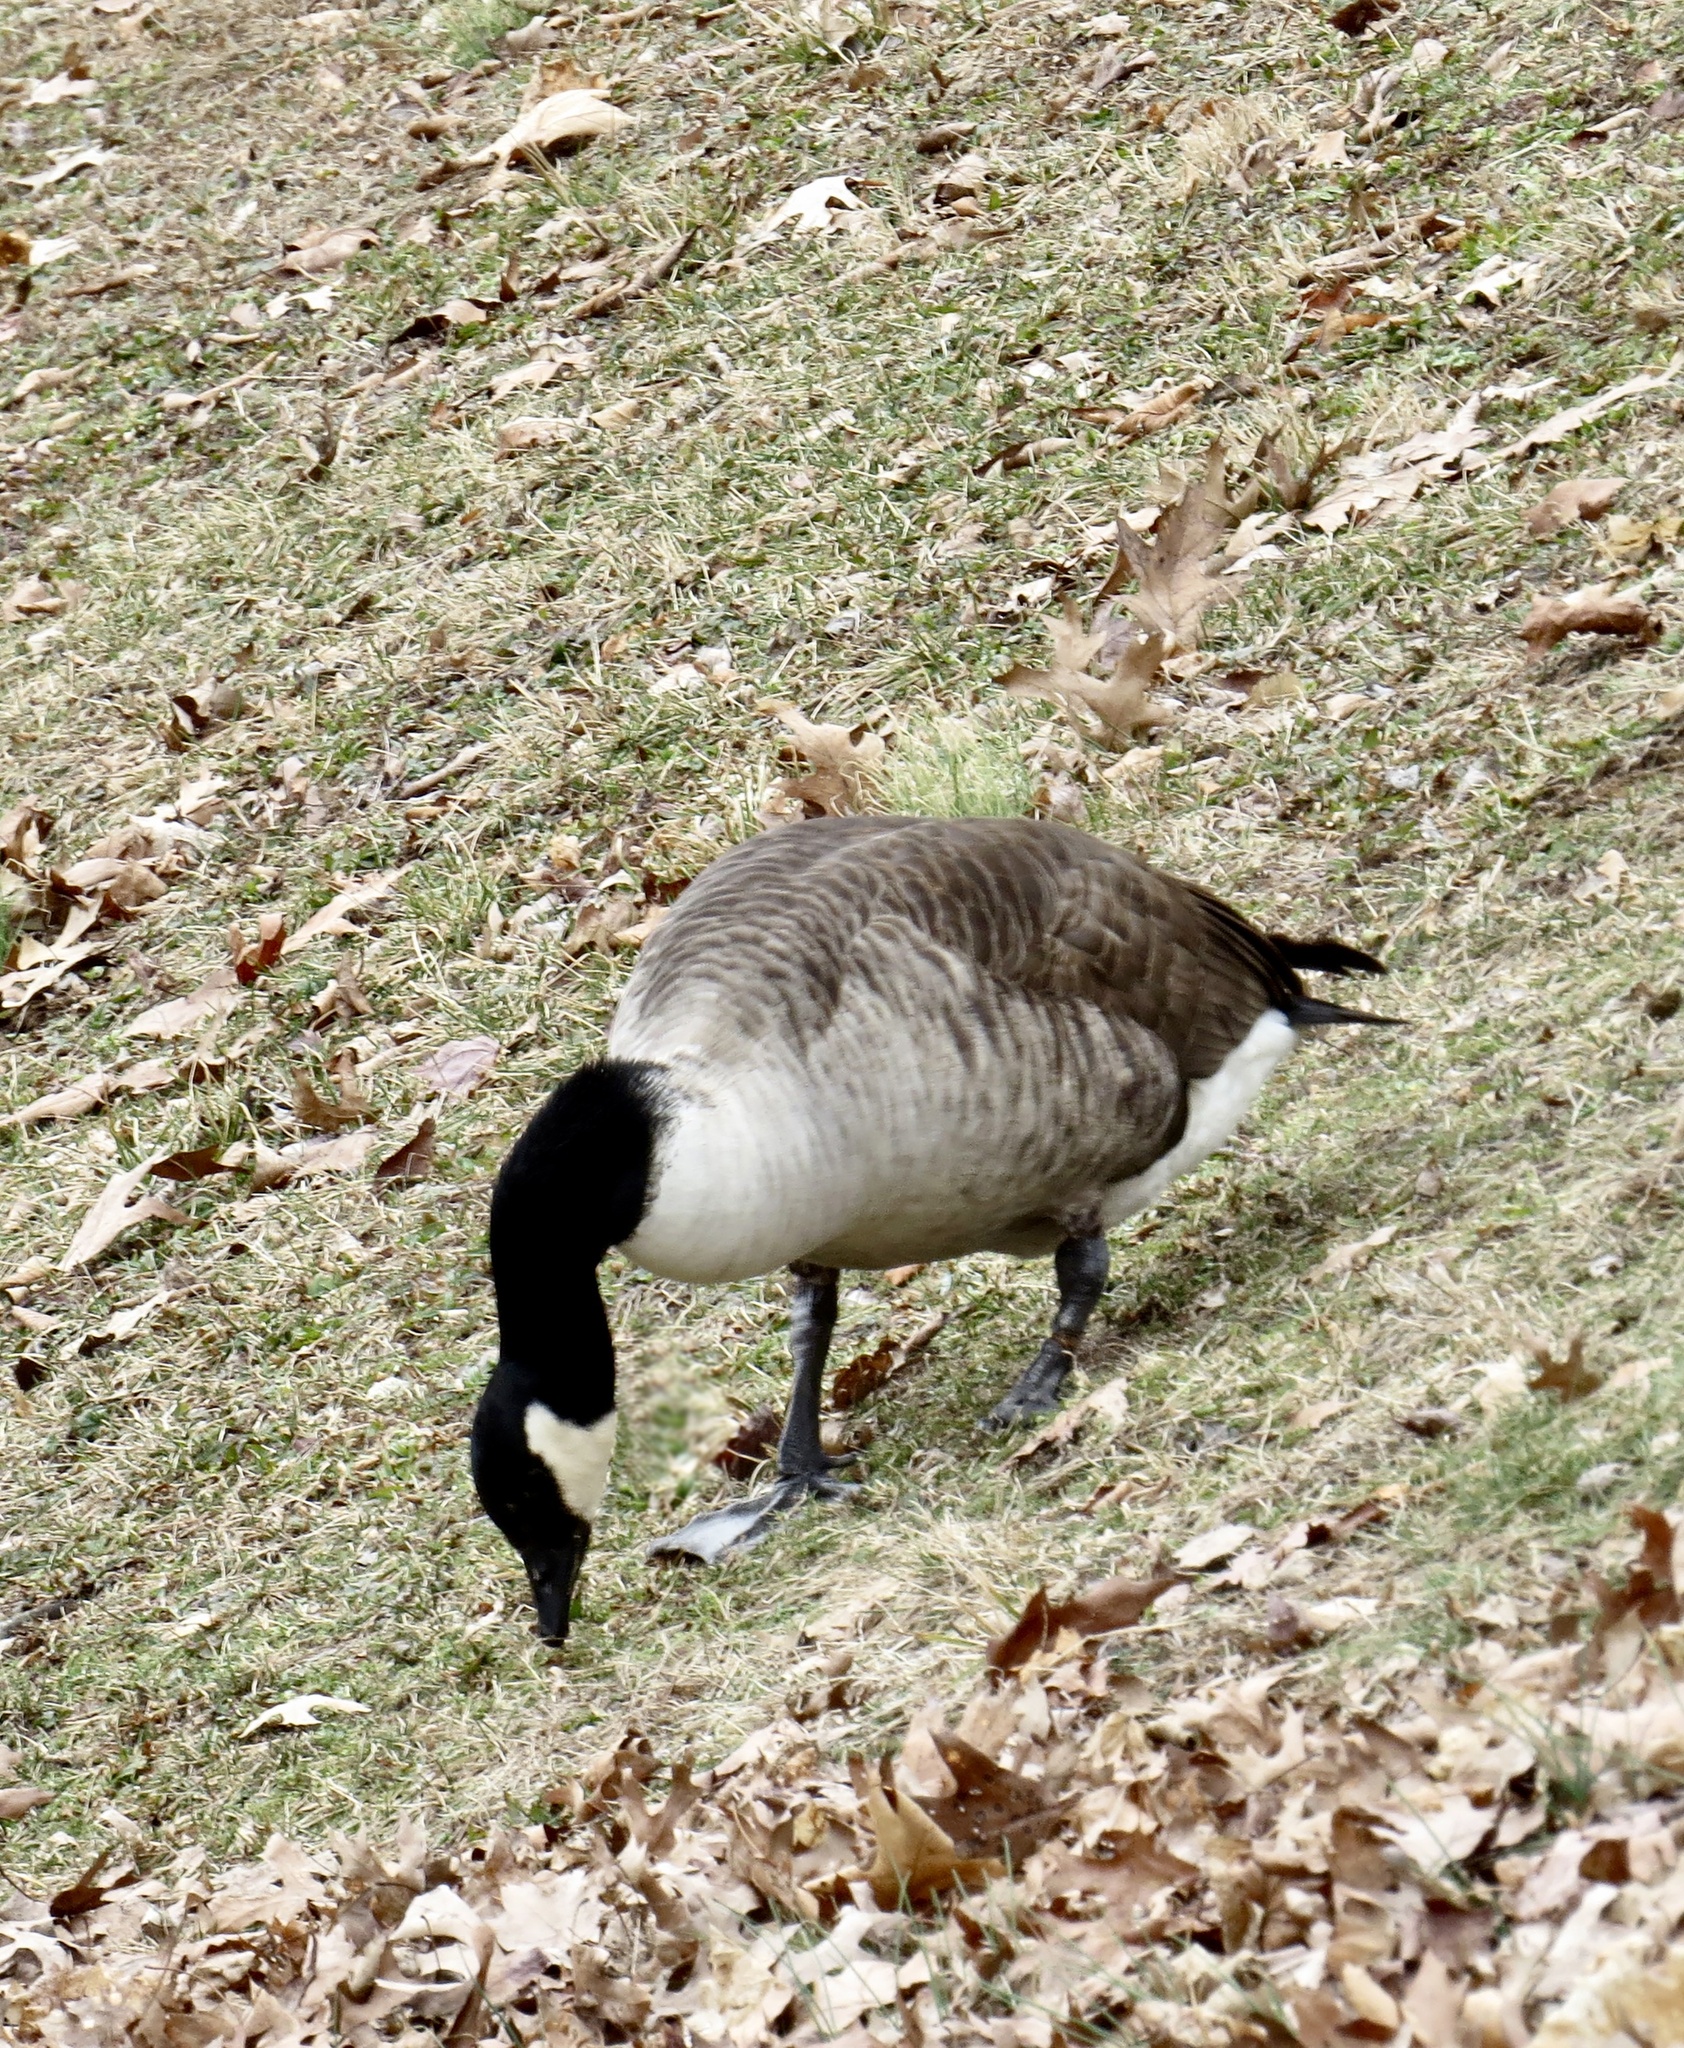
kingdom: Animalia
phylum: Chordata
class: Aves
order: Anseriformes
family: Anatidae
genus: Branta
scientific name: Branta canadensis
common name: Canada goose
